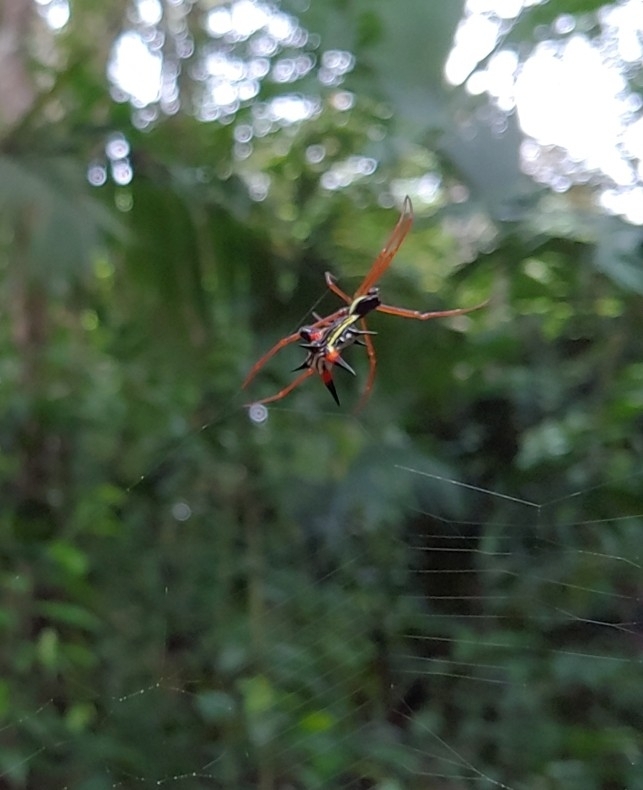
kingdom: Animalia
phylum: Arthropoda
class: Arachnida
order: Araneae
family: Araneidae
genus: Micrathena
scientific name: Micrathena schreibersi
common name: Orb weavers
